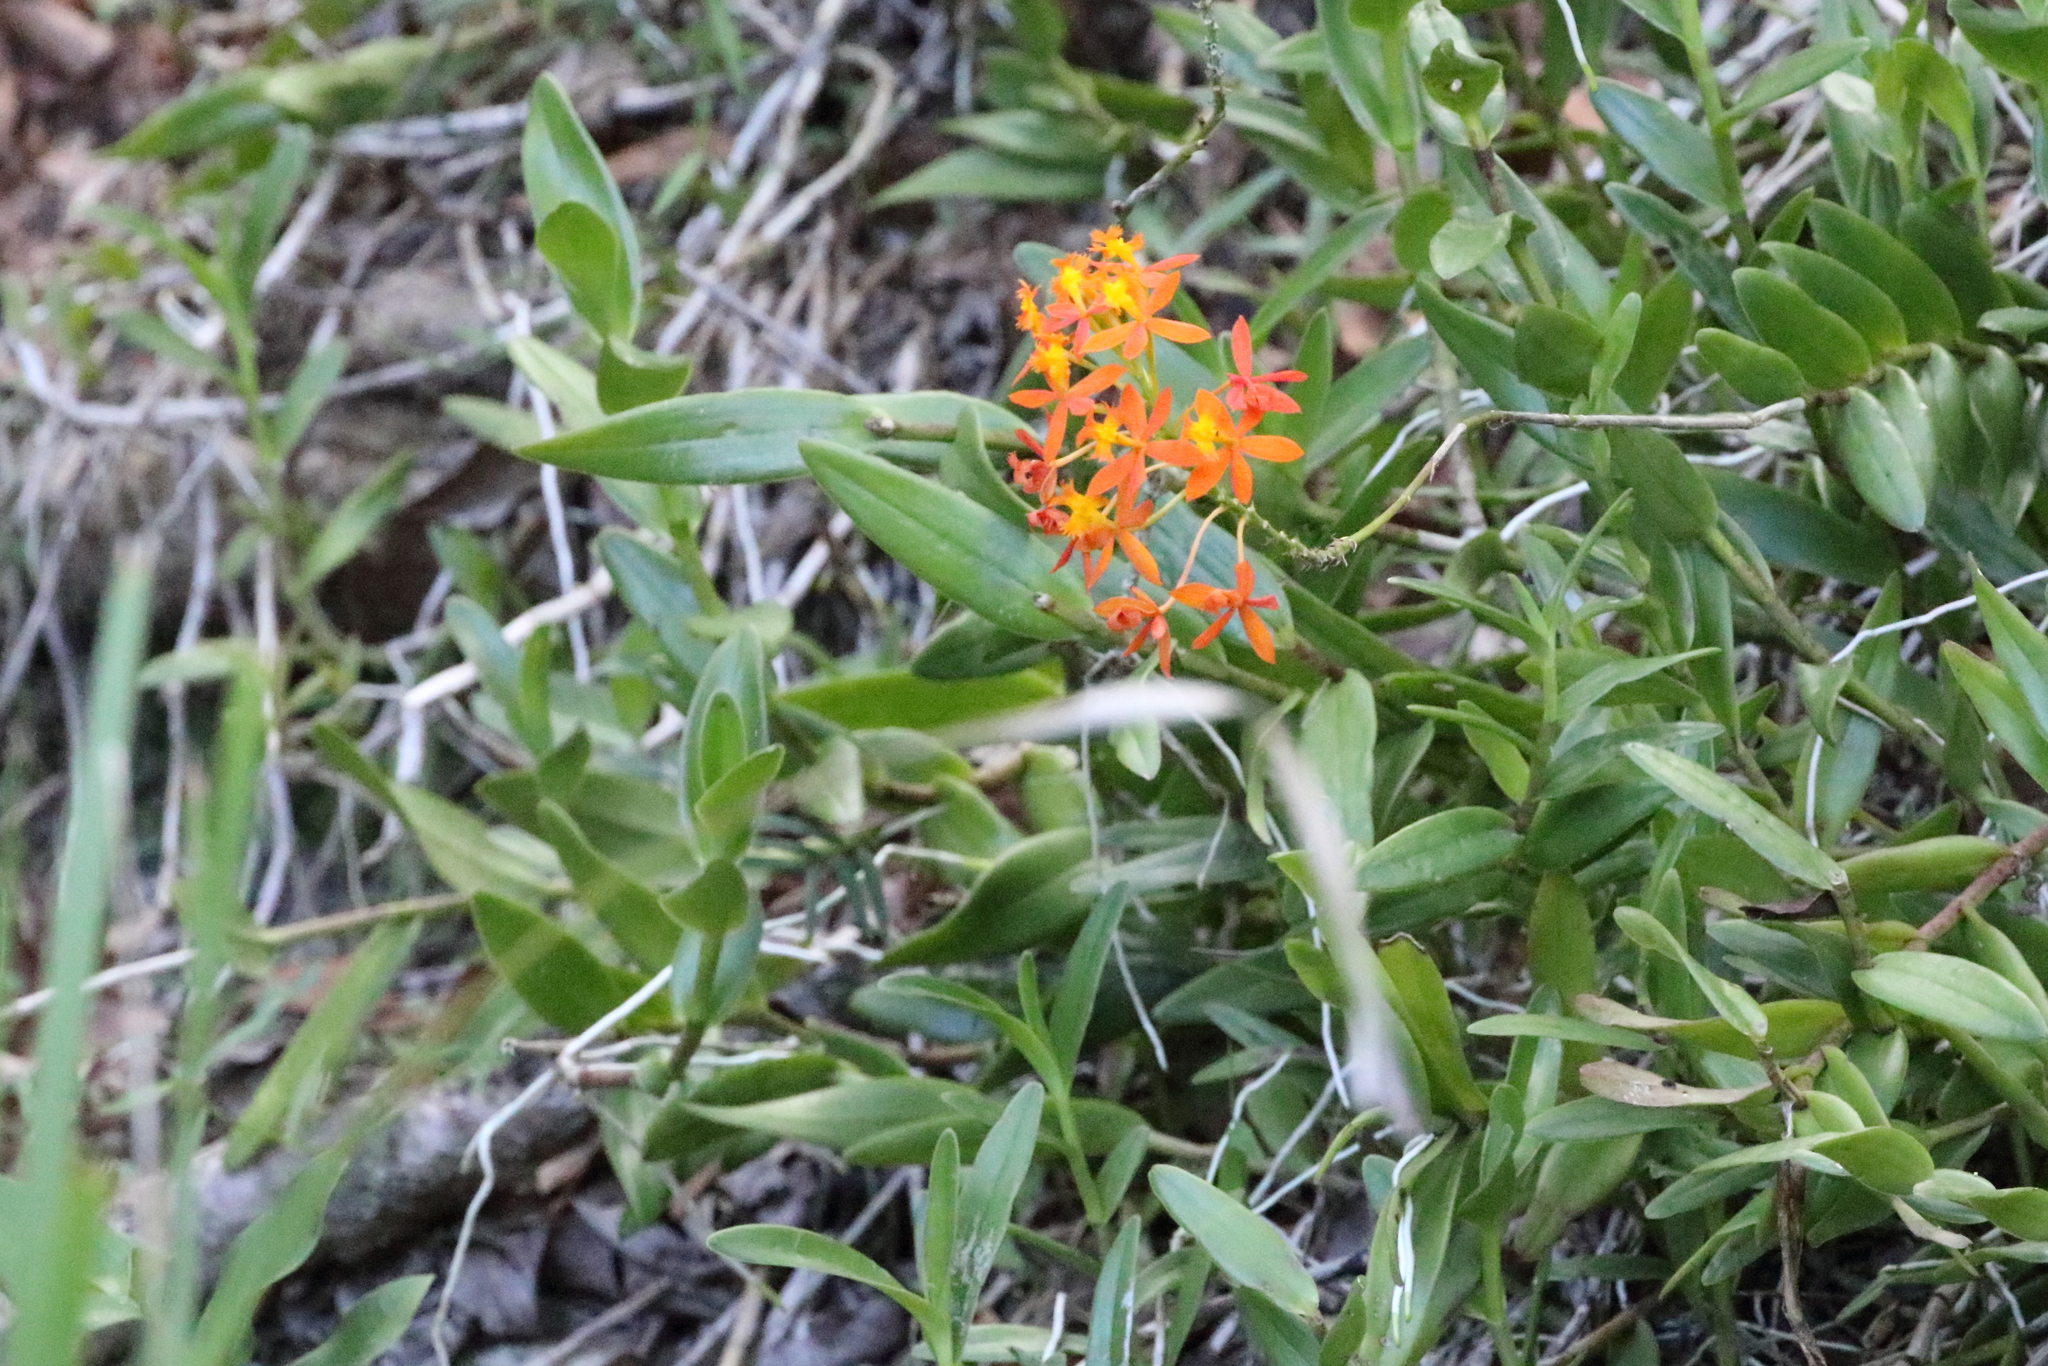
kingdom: Plantae
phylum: Tracheophyta
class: Liliopsida
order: Asparagales
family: Orchidaceae
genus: Epidendrum
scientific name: Epidendrum radicans
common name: Fire star orchid
